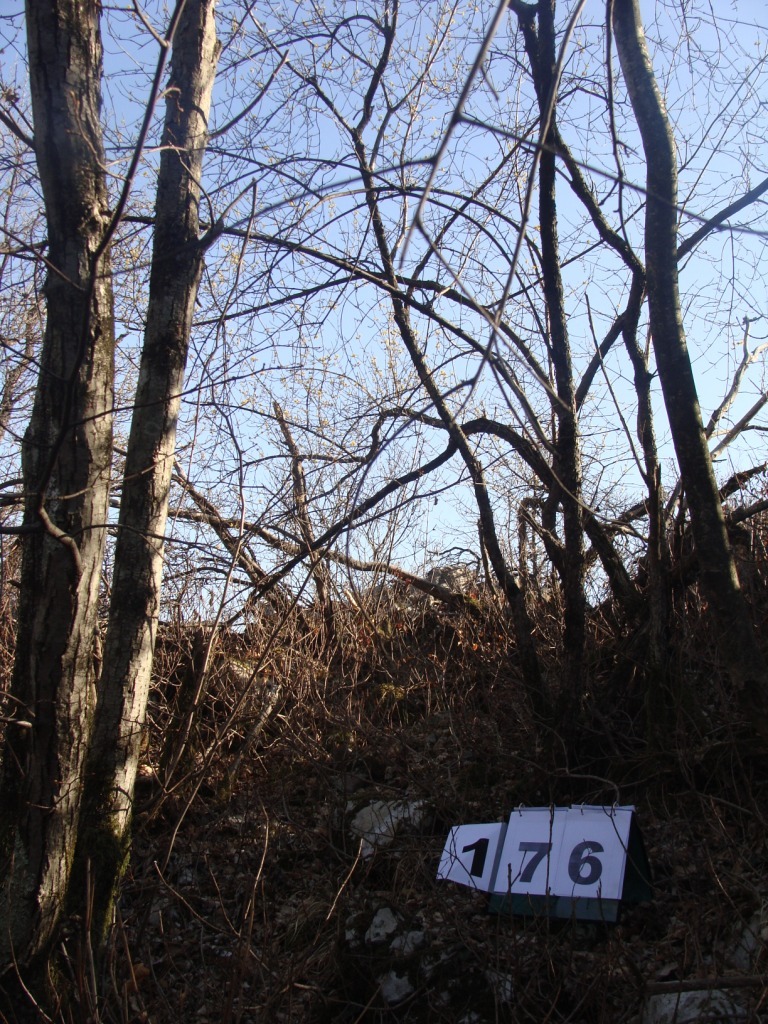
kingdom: Plantae
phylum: Tracheophyta
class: Magnoliopsida
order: Cornales
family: Cornaceae
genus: Cornus
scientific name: Cornus mas
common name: Cornelian-cherry
